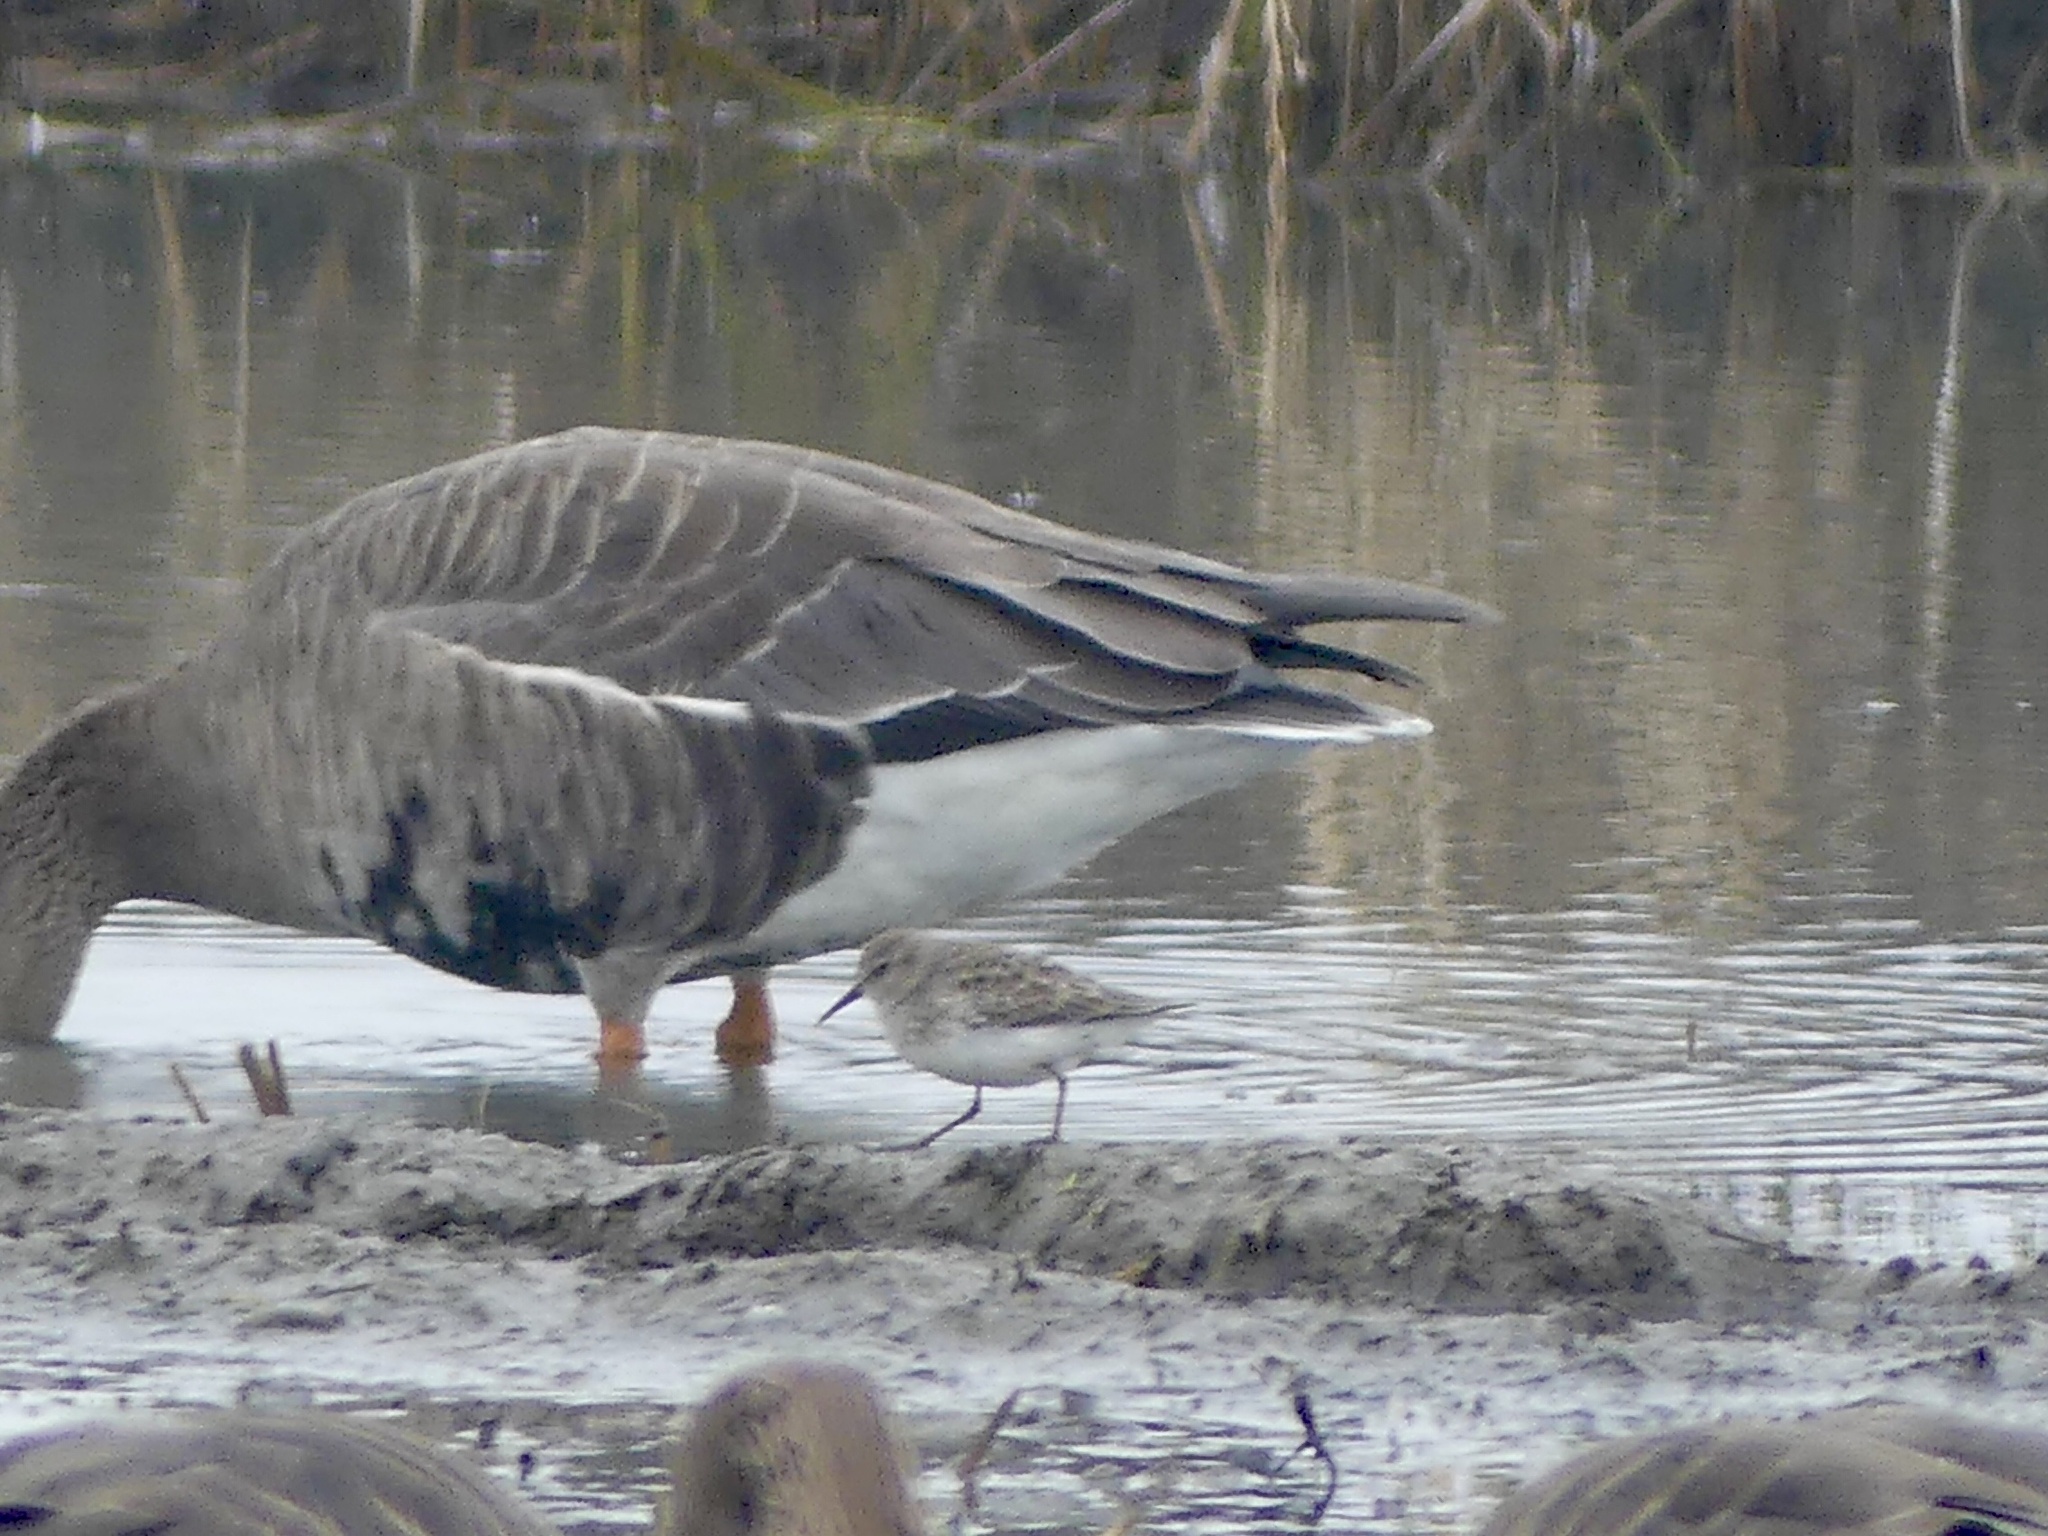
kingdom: Animalia
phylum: Chordata
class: Aves
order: Charadriiformes
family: Scolopacidae
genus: Calidris
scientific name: Calidris minutilla
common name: Least sandpiper
